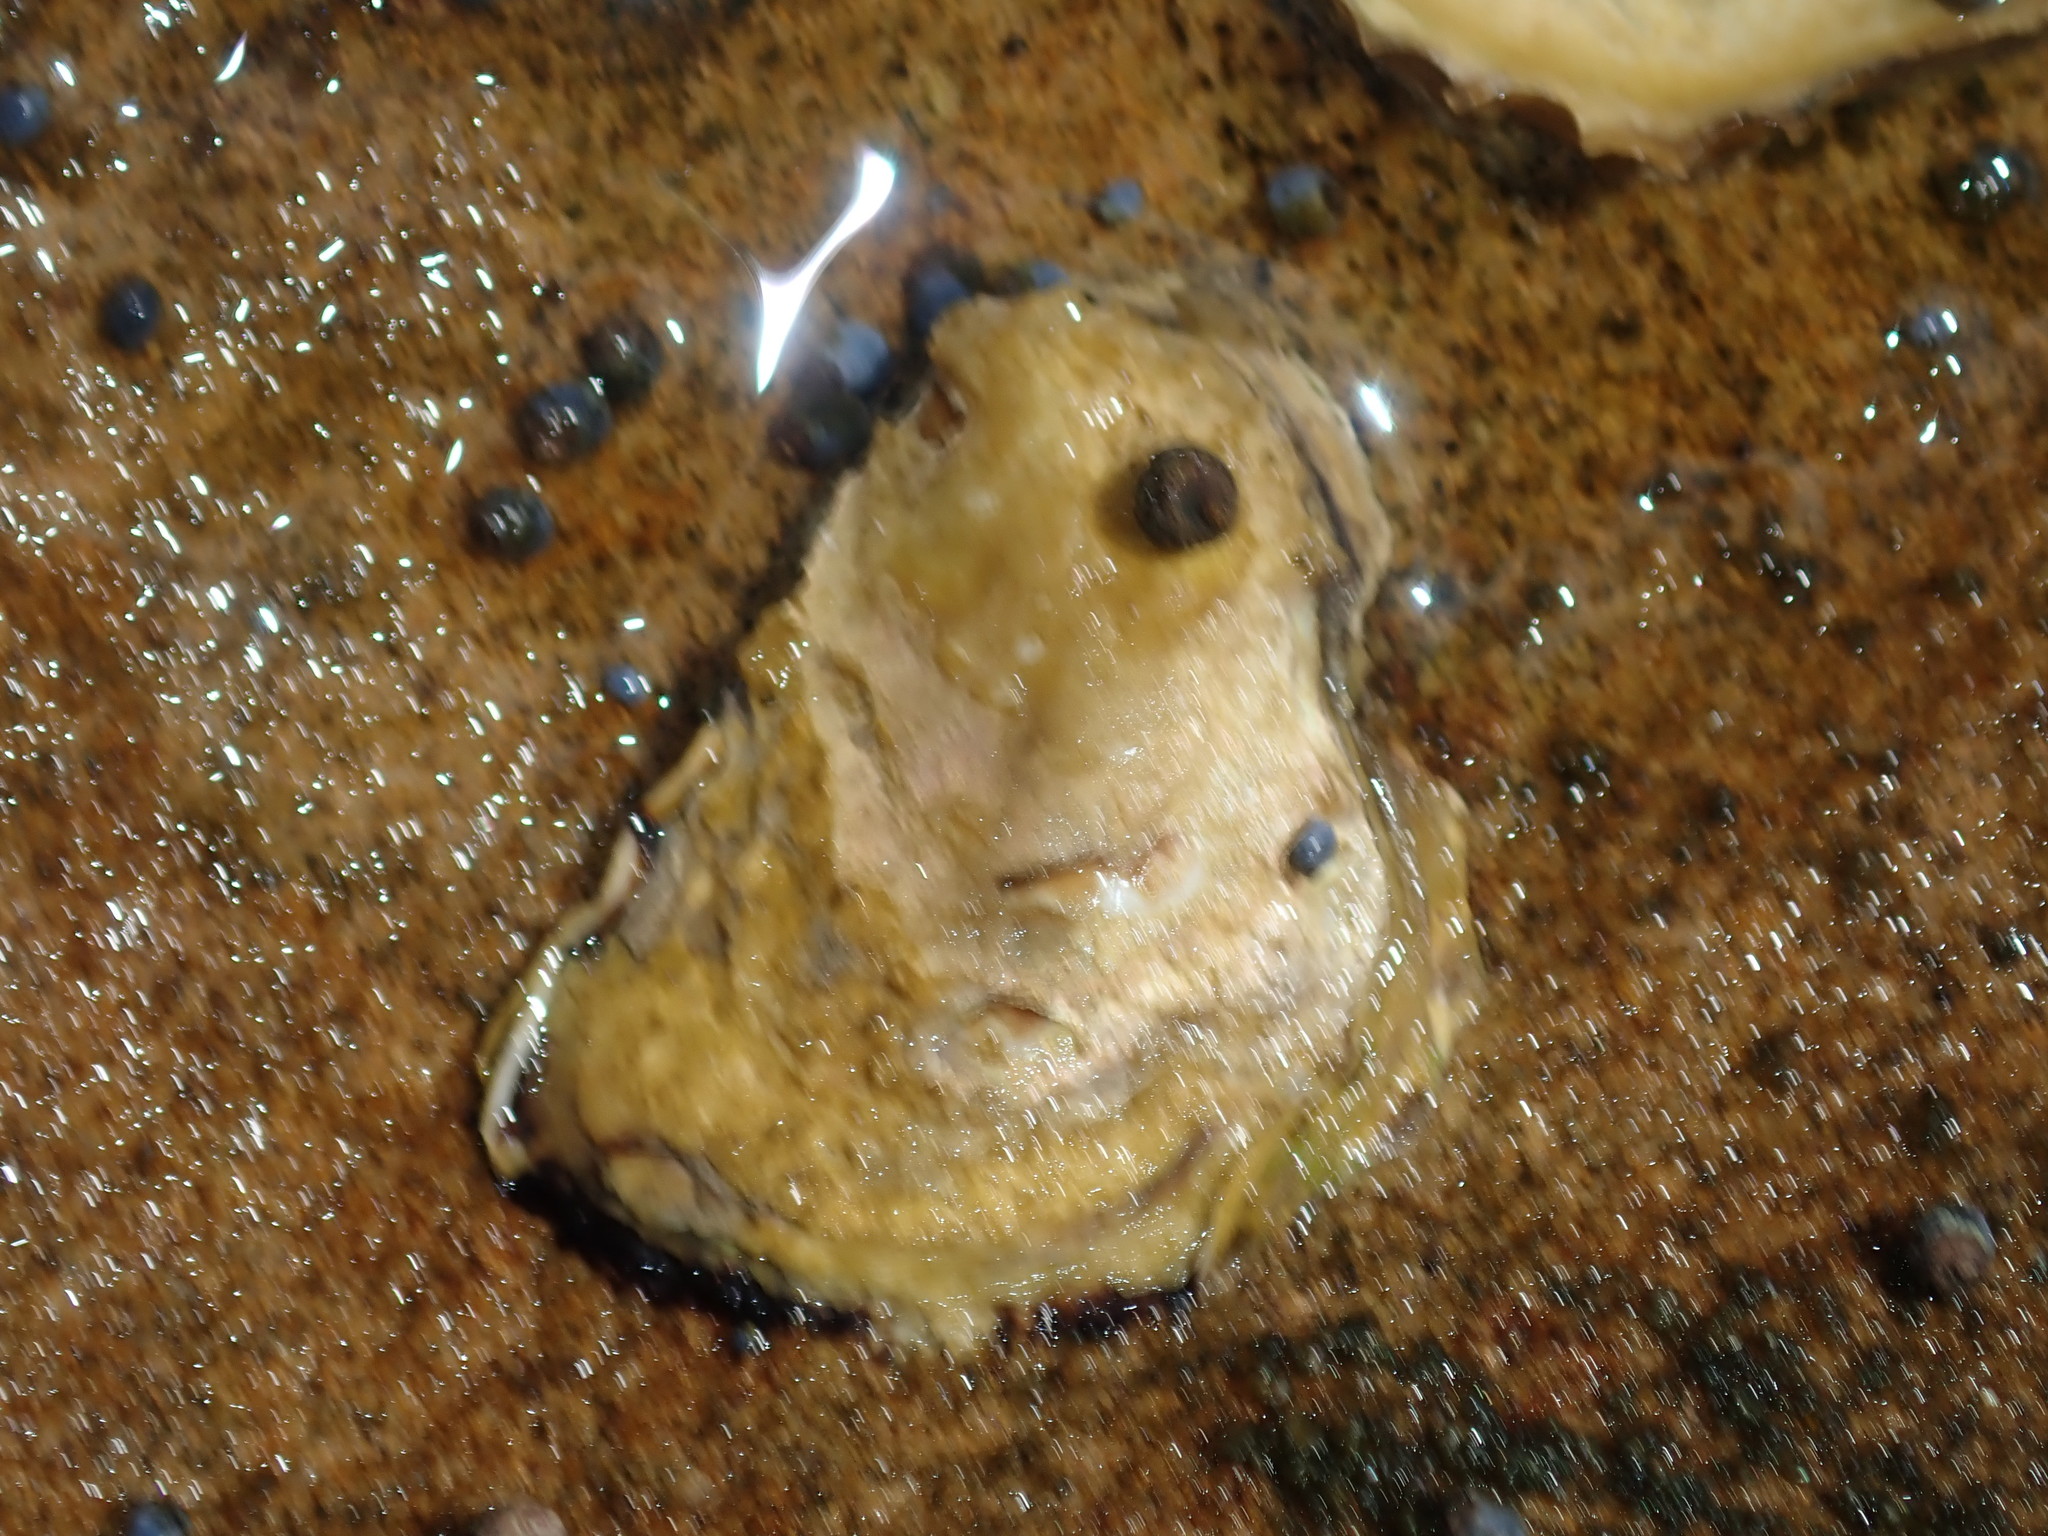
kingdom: Animalia
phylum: Mollusca
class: Bivalvia
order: Ostreida
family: Ostreidae
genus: Saccostrea
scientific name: Saccostrea glomerata
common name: Sydney cupped oyster
